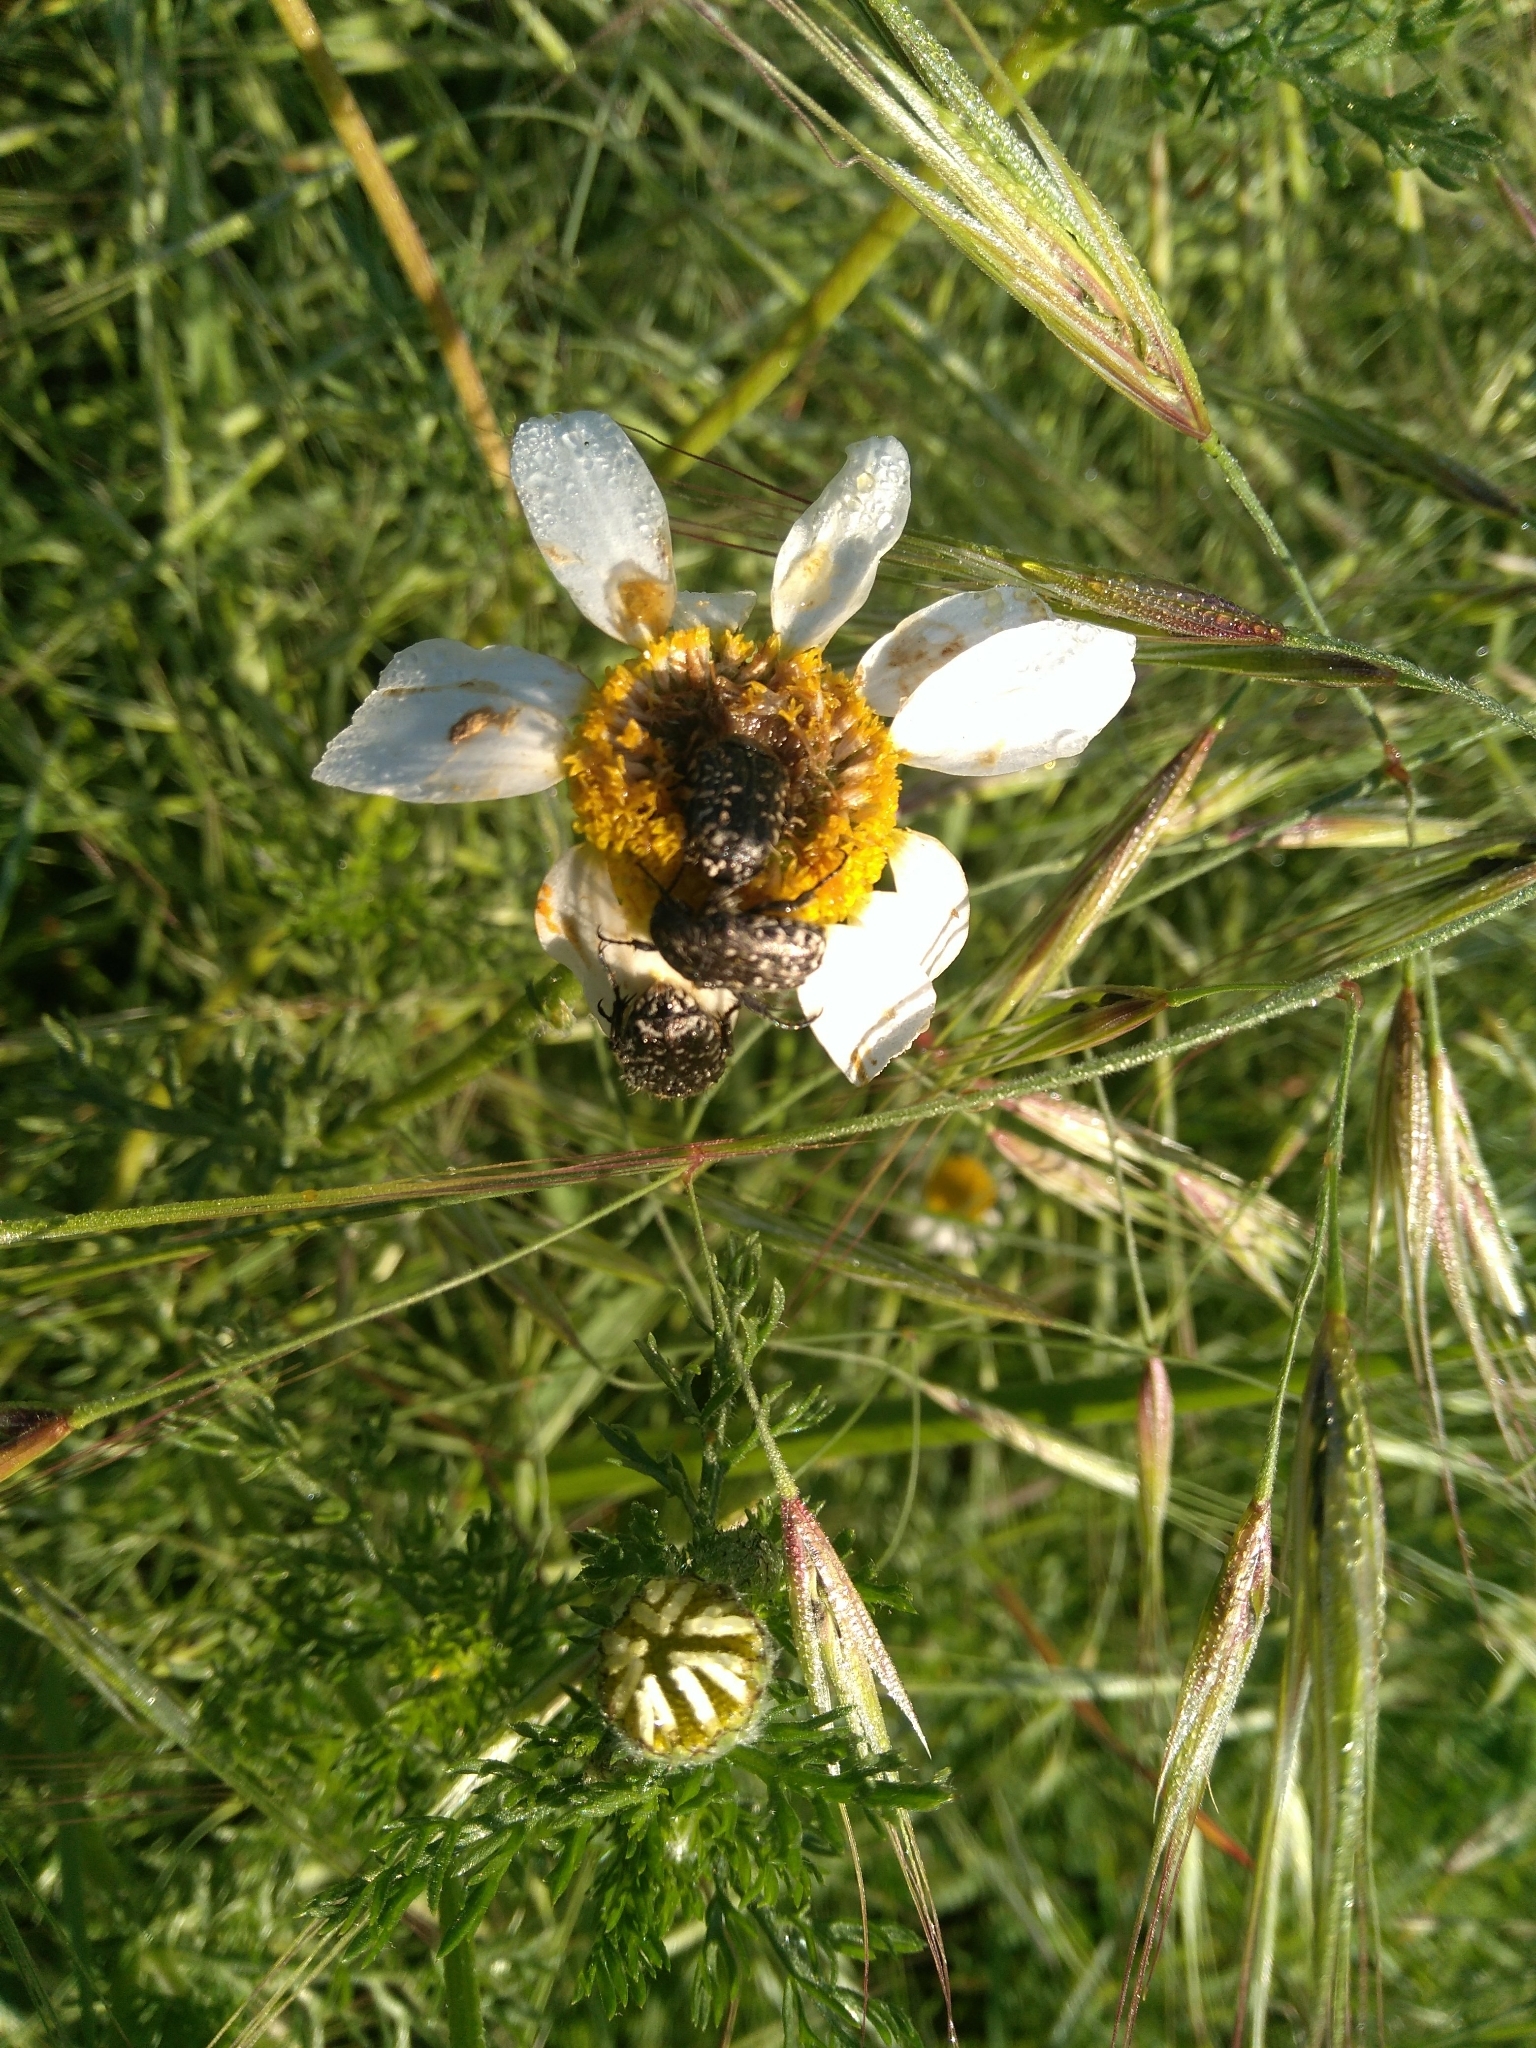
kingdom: Animalia
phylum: Arthropoda
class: Insecta
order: Coleoptera
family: Scarabaeidae
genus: Oxythyrea
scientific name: Oxythyrea funesta
